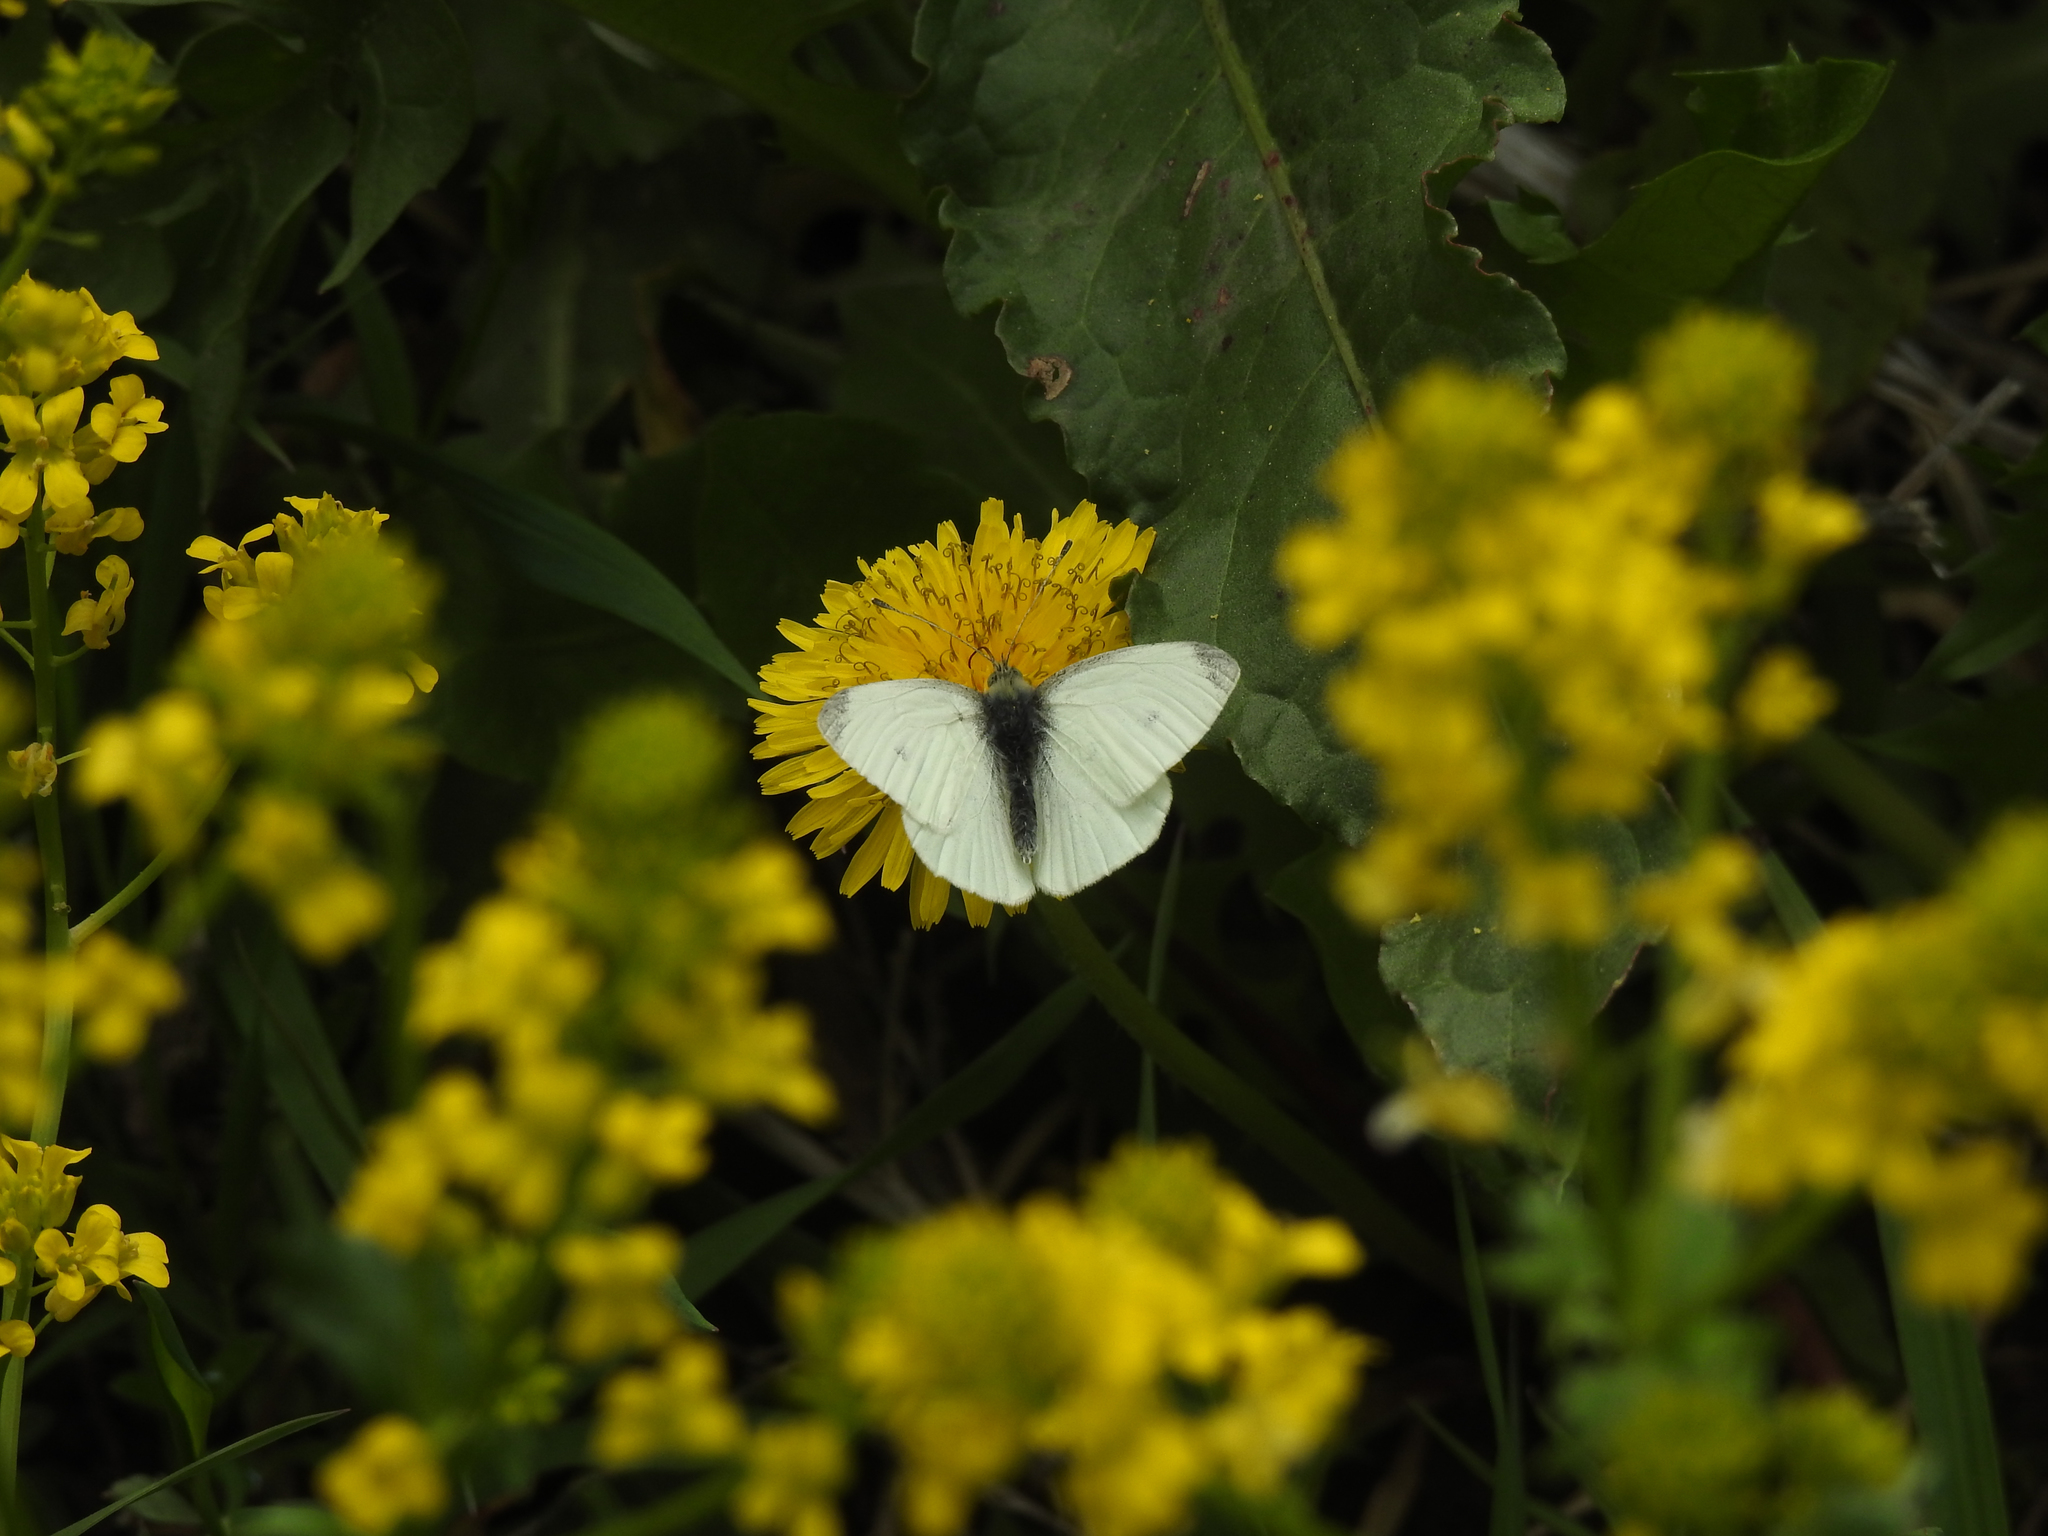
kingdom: Animalia
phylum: Arthropoda
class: Insecta
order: Lepidoptera
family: Pieridae
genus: Pieris
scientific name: Pieris rapae
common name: Small white
